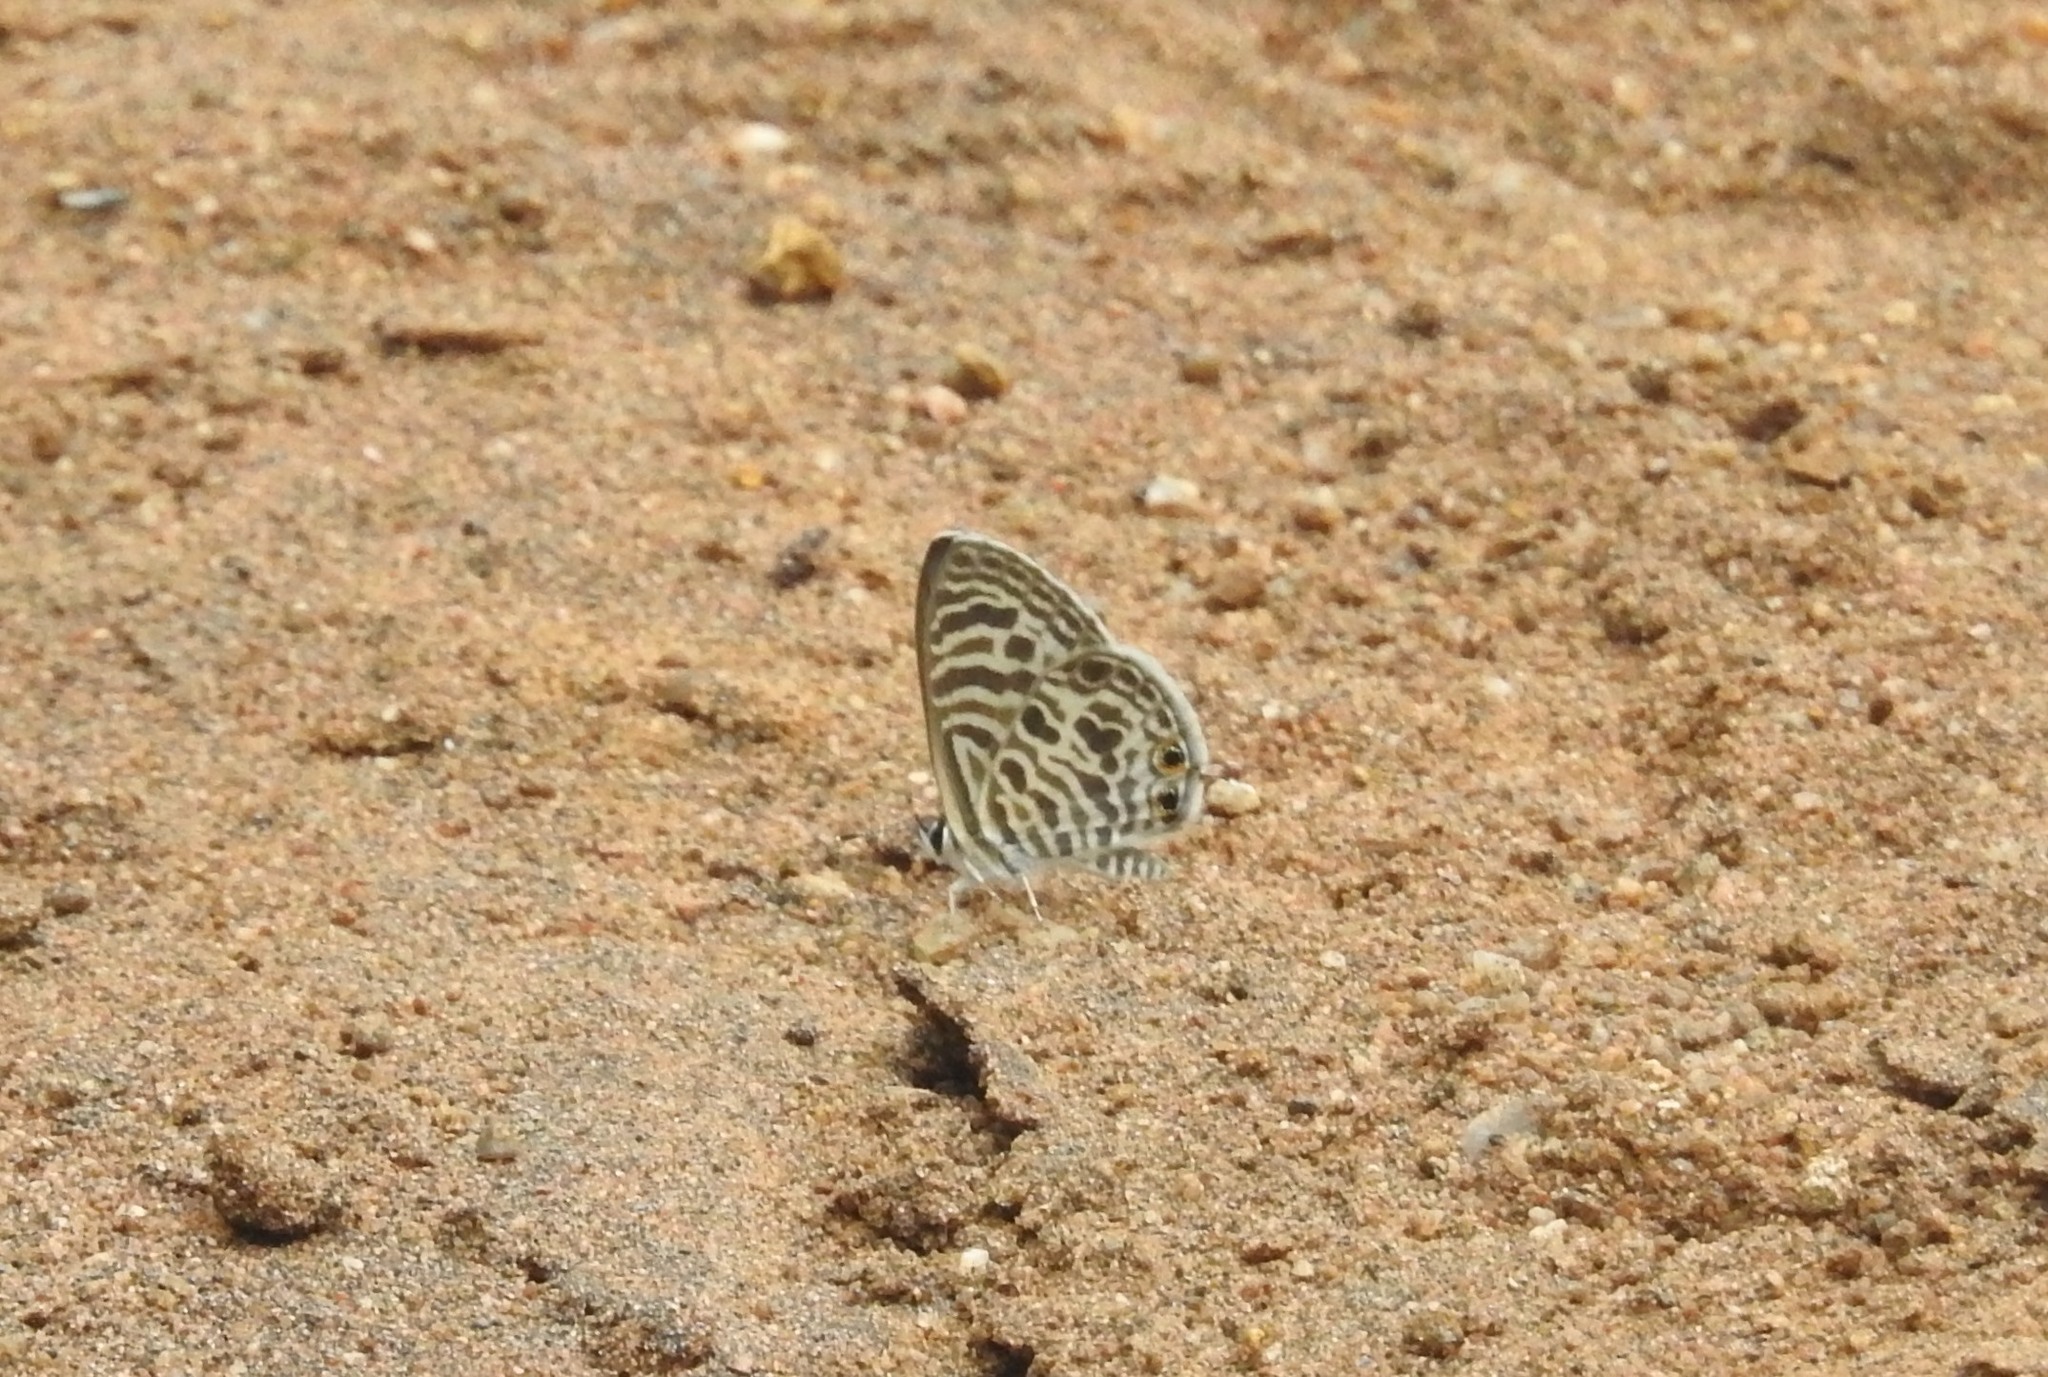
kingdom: Animalia
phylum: Arthropoda
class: Insecta
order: Lepidoptera
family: Lycaenidae
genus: Leptotes
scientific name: Leptotes plinius
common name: Zebra blue
